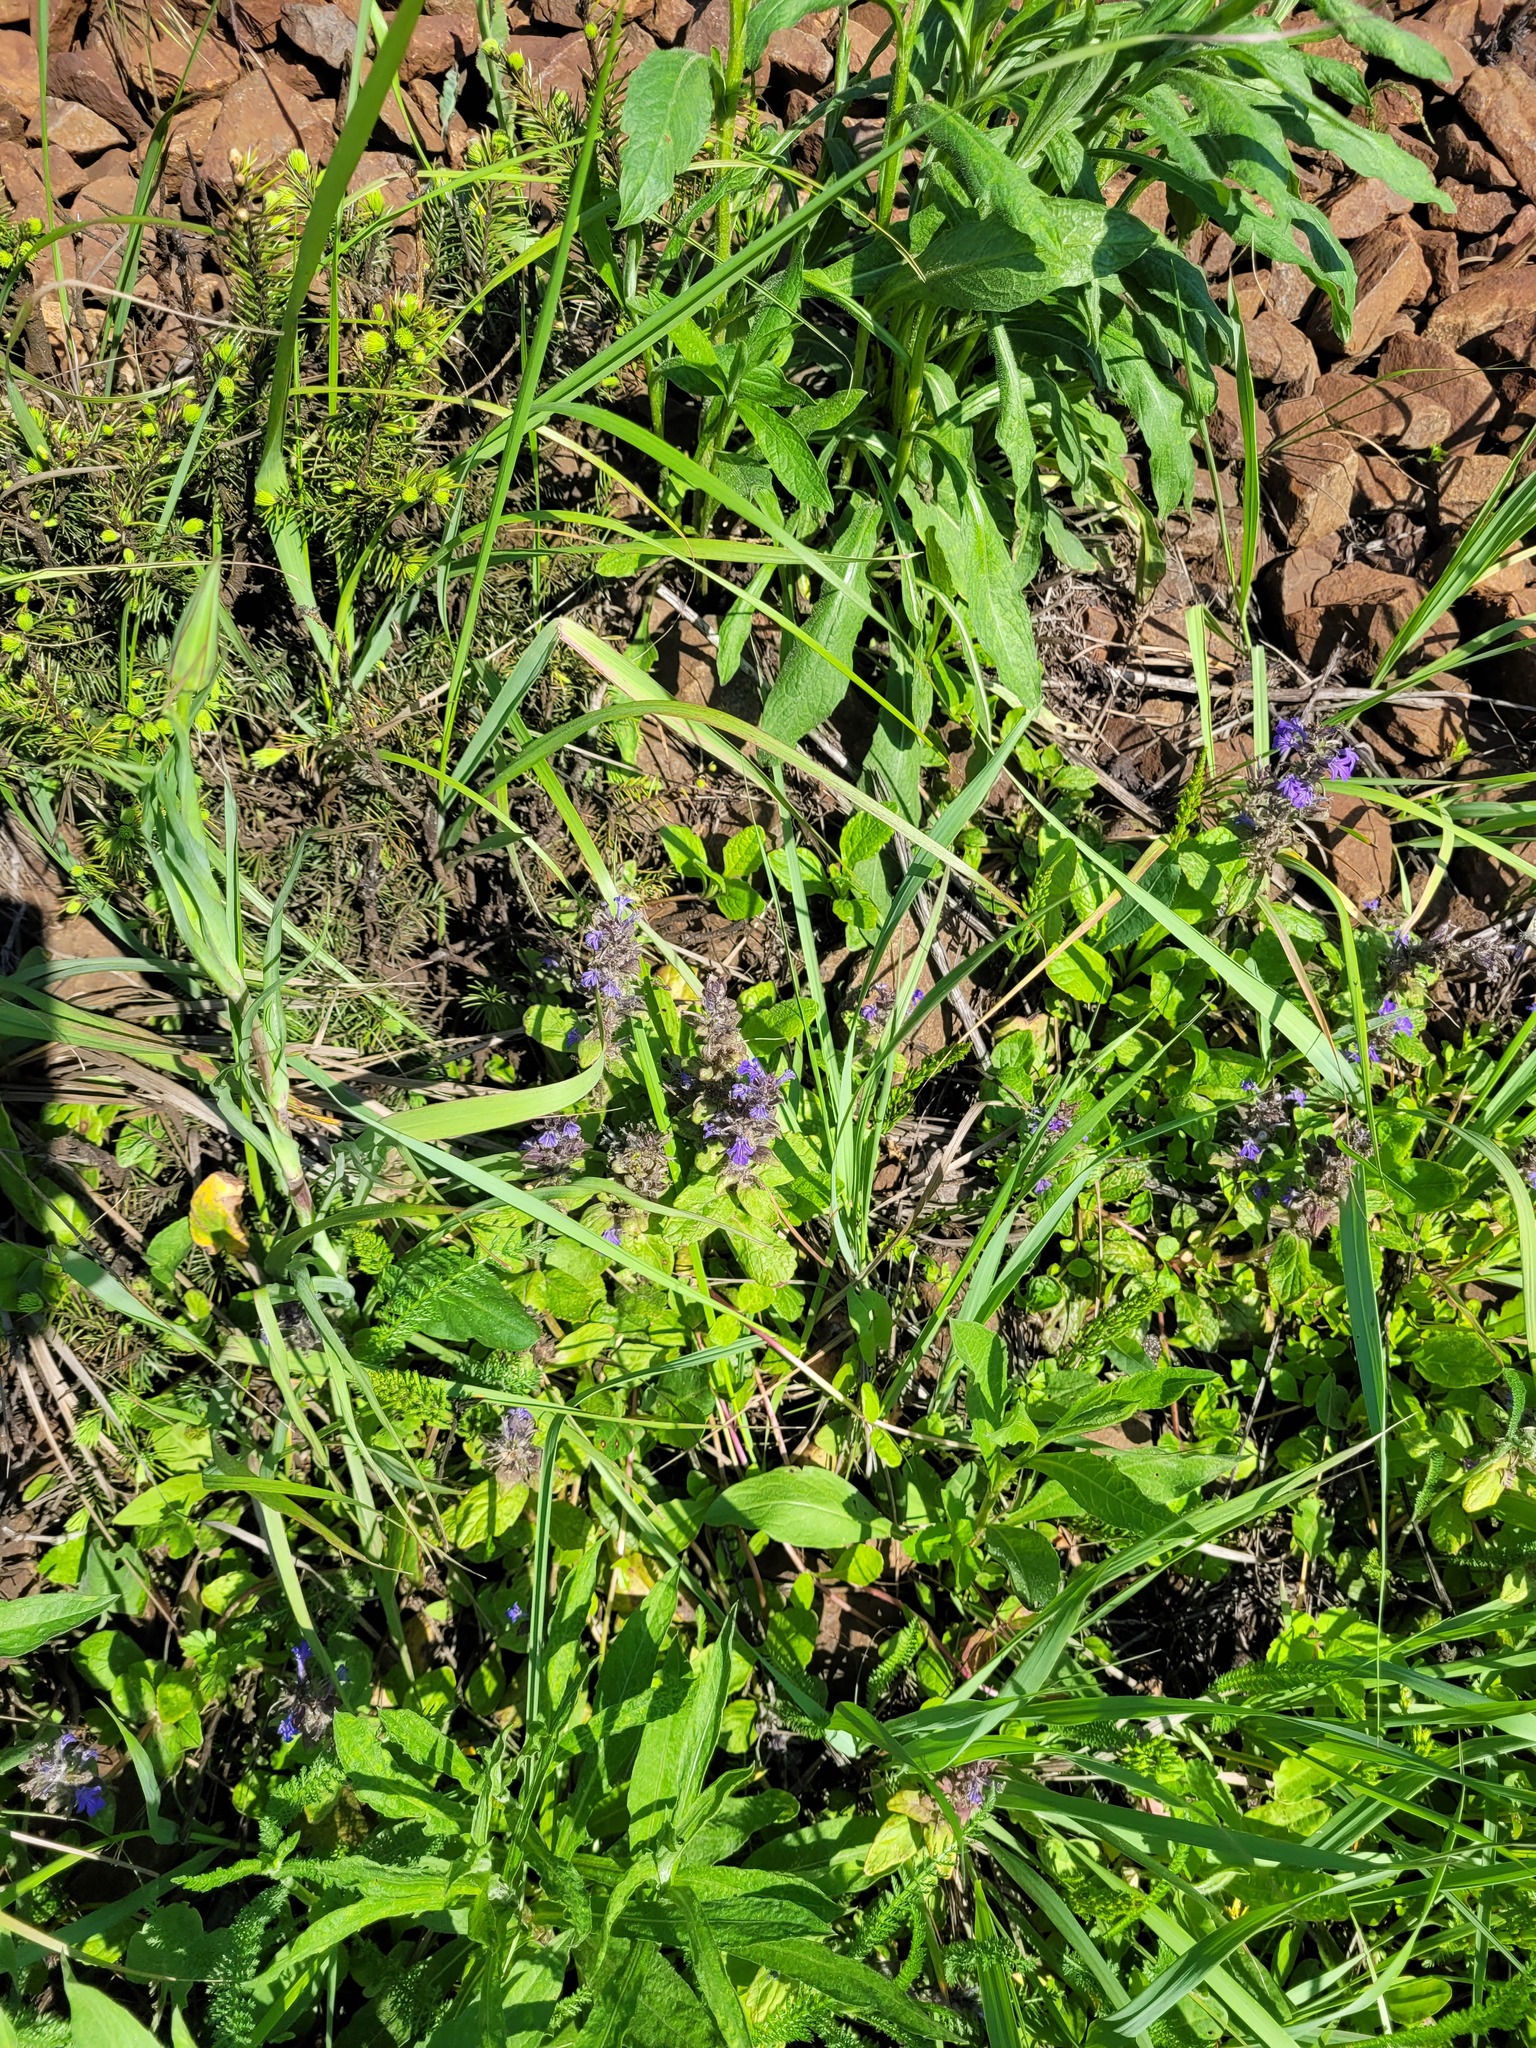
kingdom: Plantae
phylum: Tracheophyta
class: Magnoliopsida
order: Lamiales
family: Lamiaceae
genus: Ajuga
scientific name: Ajuga reptans
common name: Bugle
